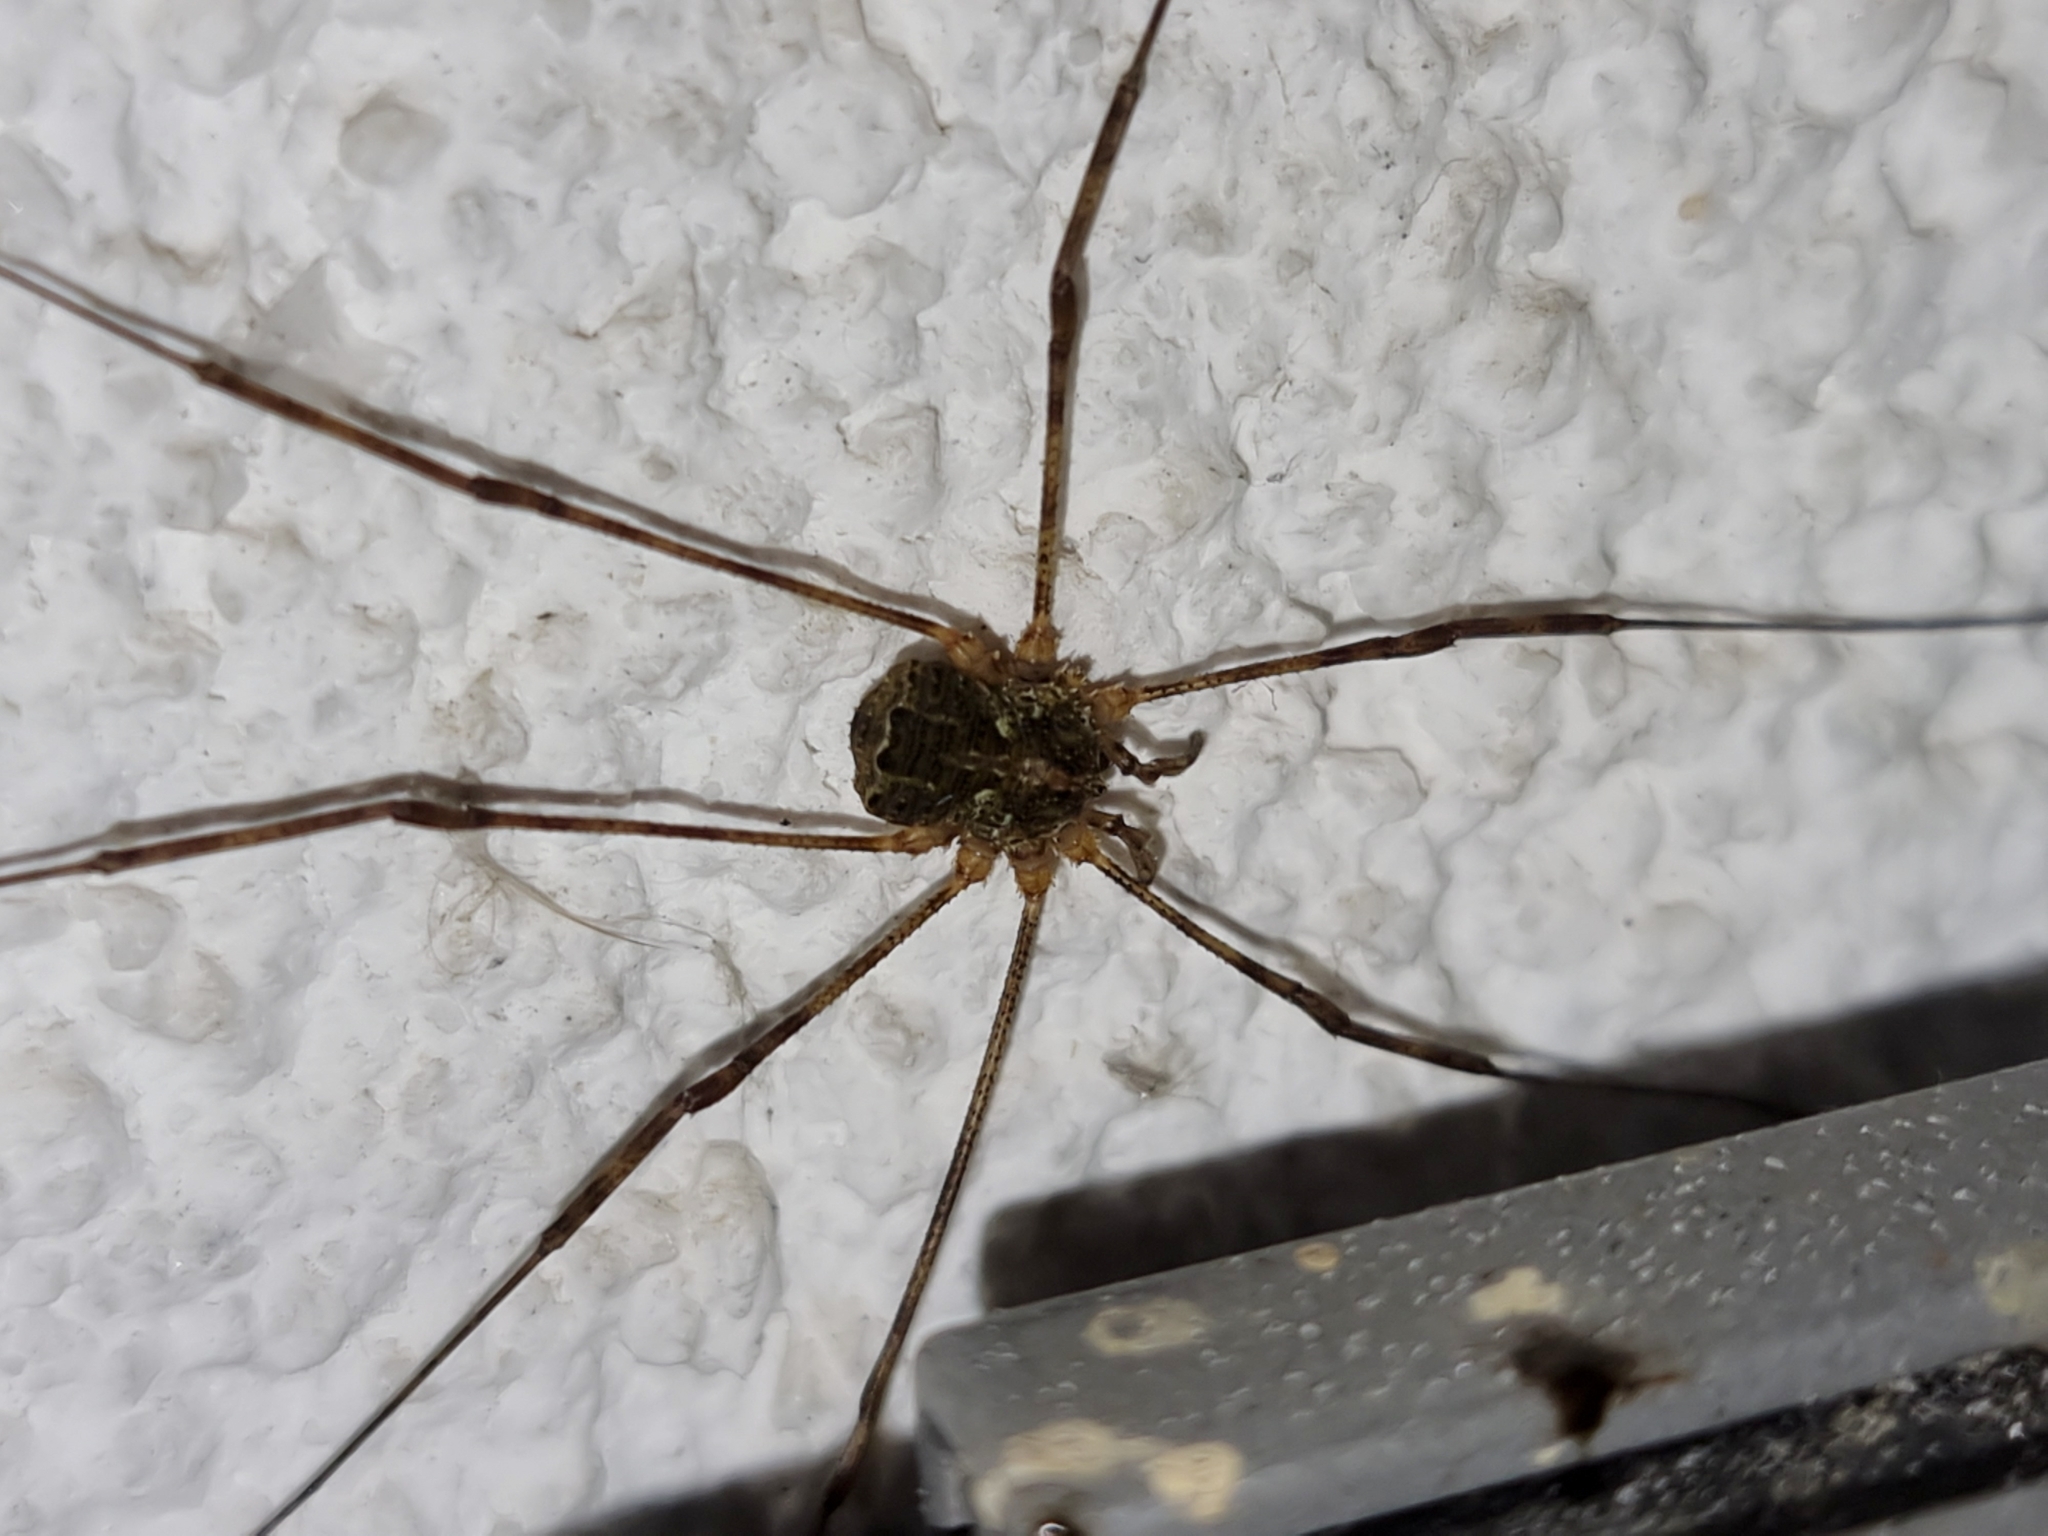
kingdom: Animalia
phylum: Arthropoda
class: Arachnida
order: Opiliones
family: Phalangiidae
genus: Lacinius
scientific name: Lacinius dentiger
